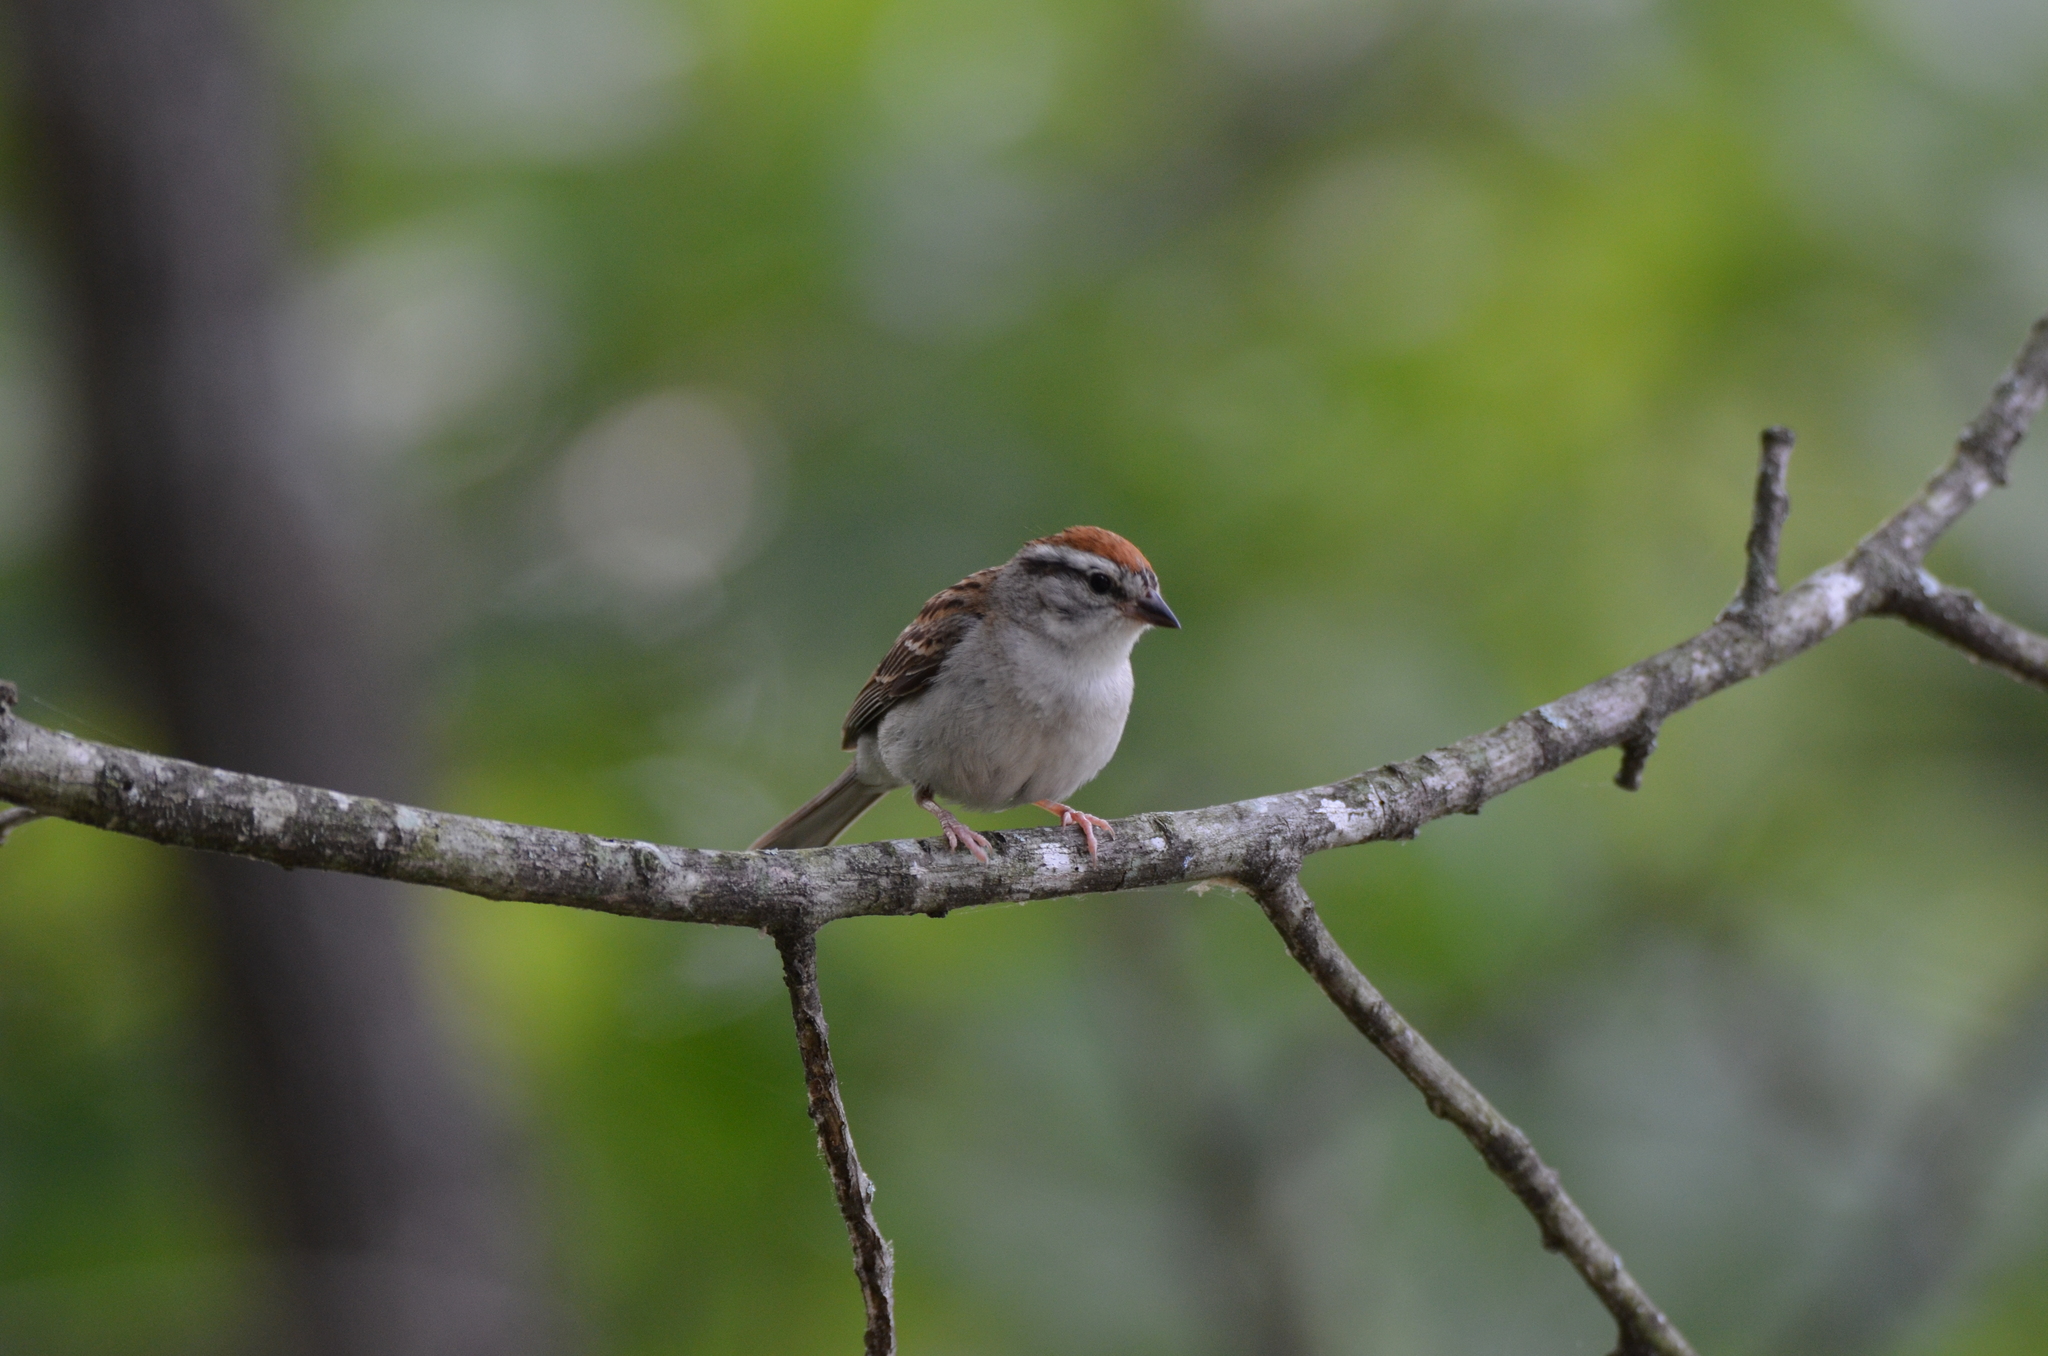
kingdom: Animalia
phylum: Chordata
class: Aves
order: Passeriformes
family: Passerellidae
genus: Spizella
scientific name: Spizella passerina
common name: Chipping sparrow
